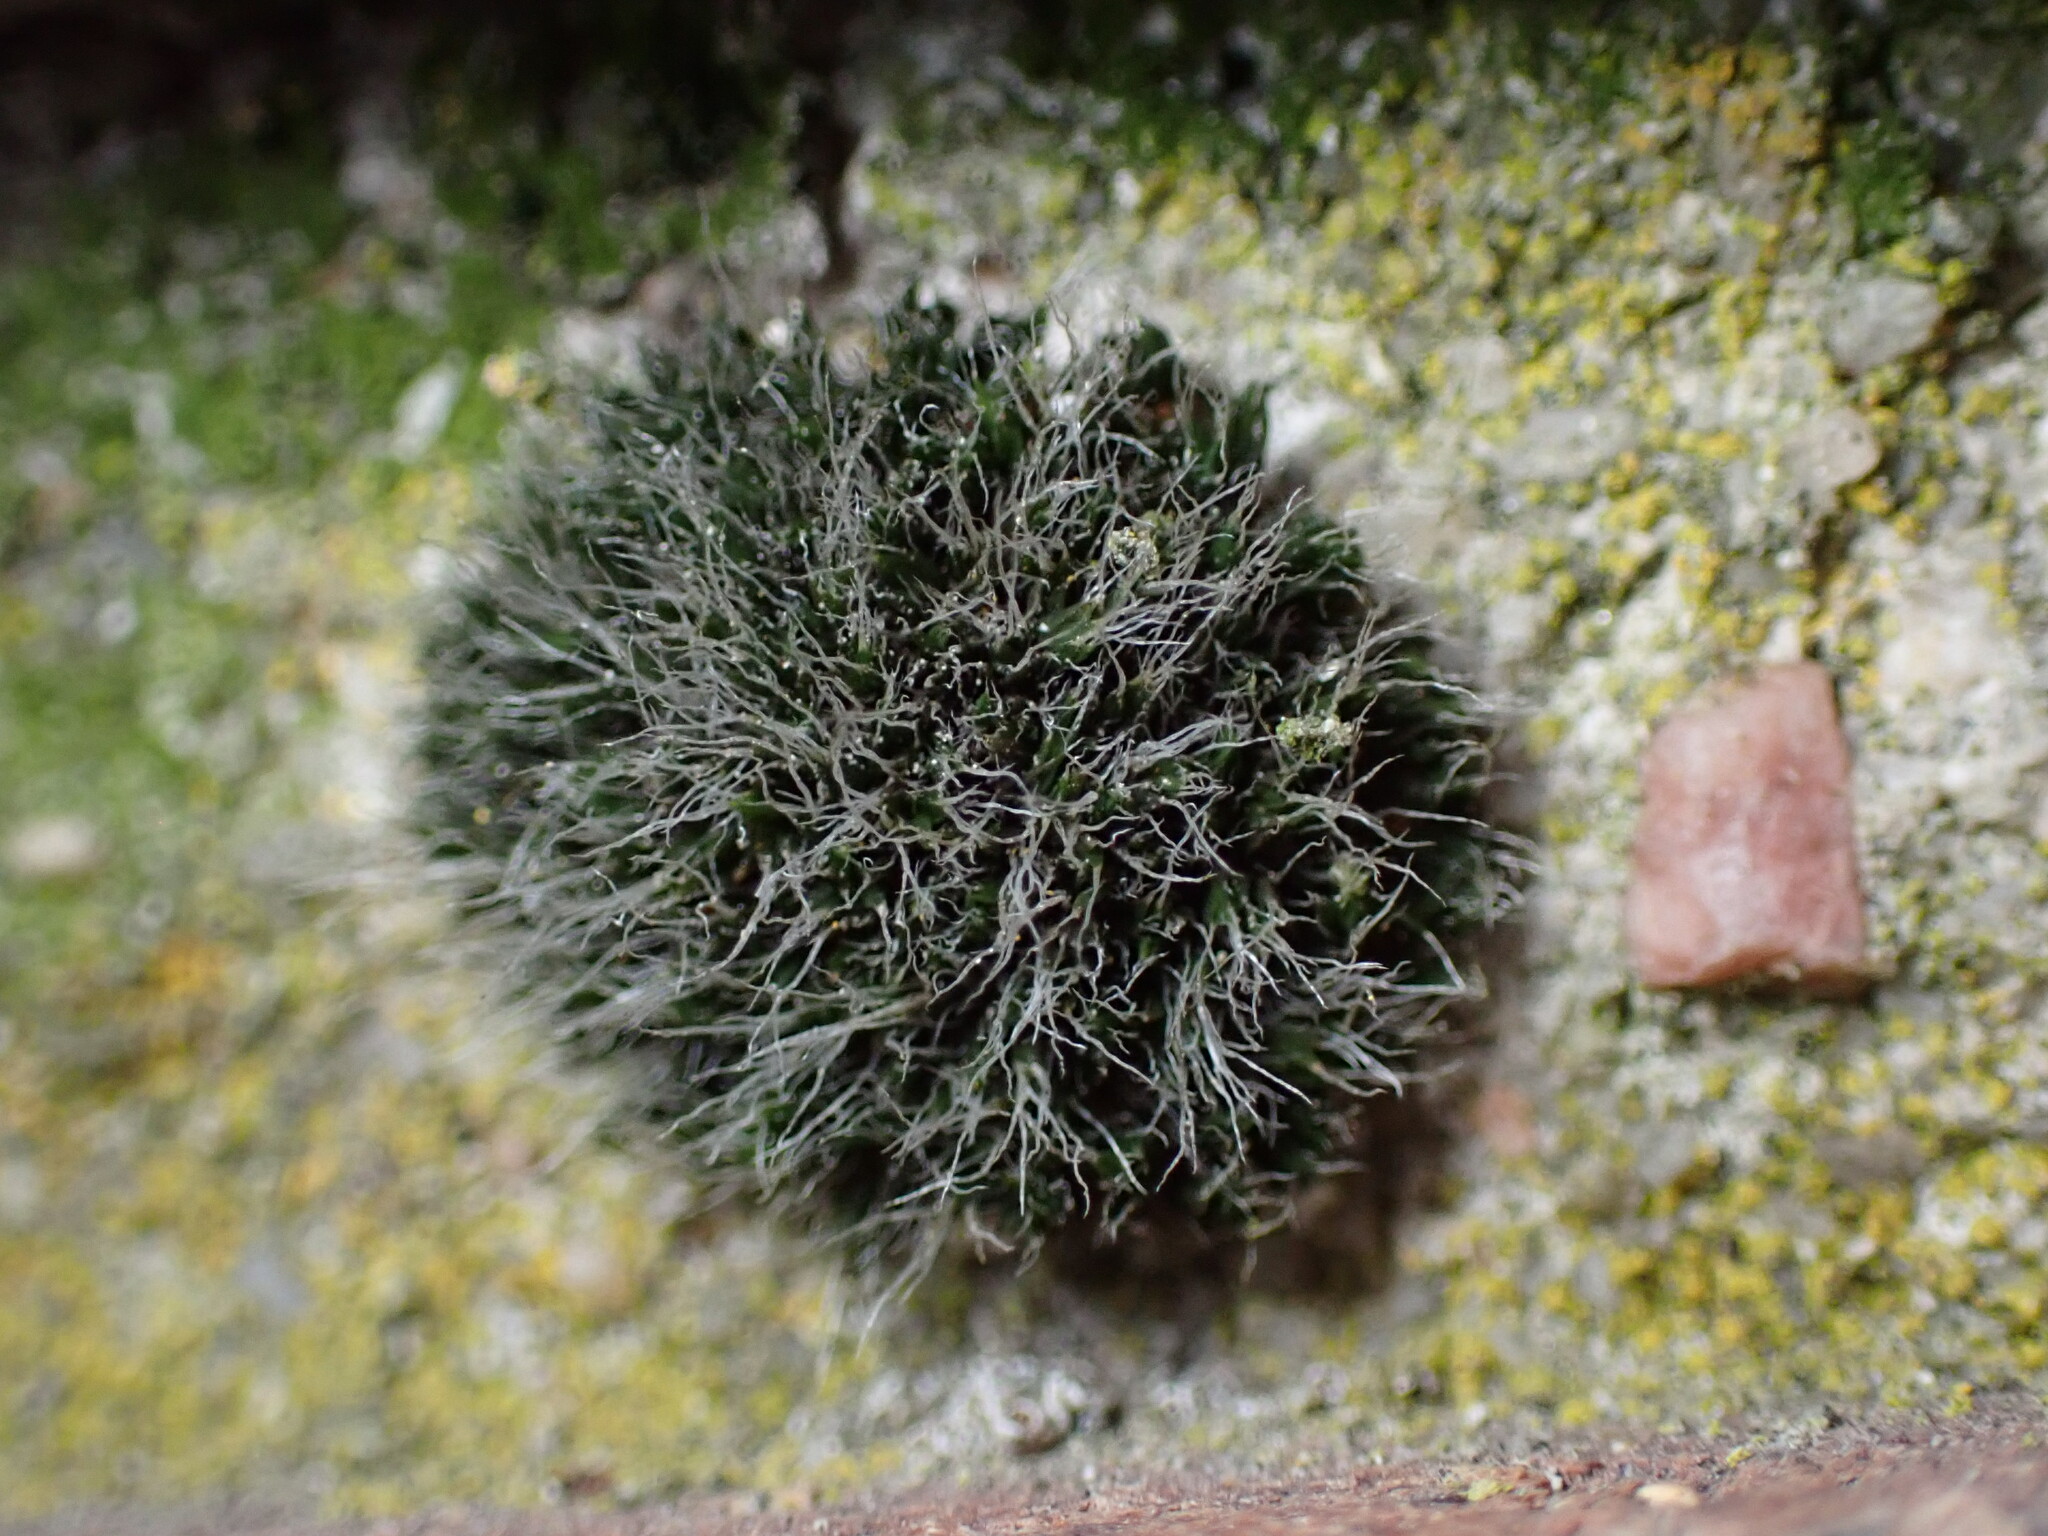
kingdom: Plantae
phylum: Bryophyta
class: Bryopsida
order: Grimmiales
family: Grimmiaceae
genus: Grimmia
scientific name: Grimmia pulvinata
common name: Grey-cushioned grimmia
